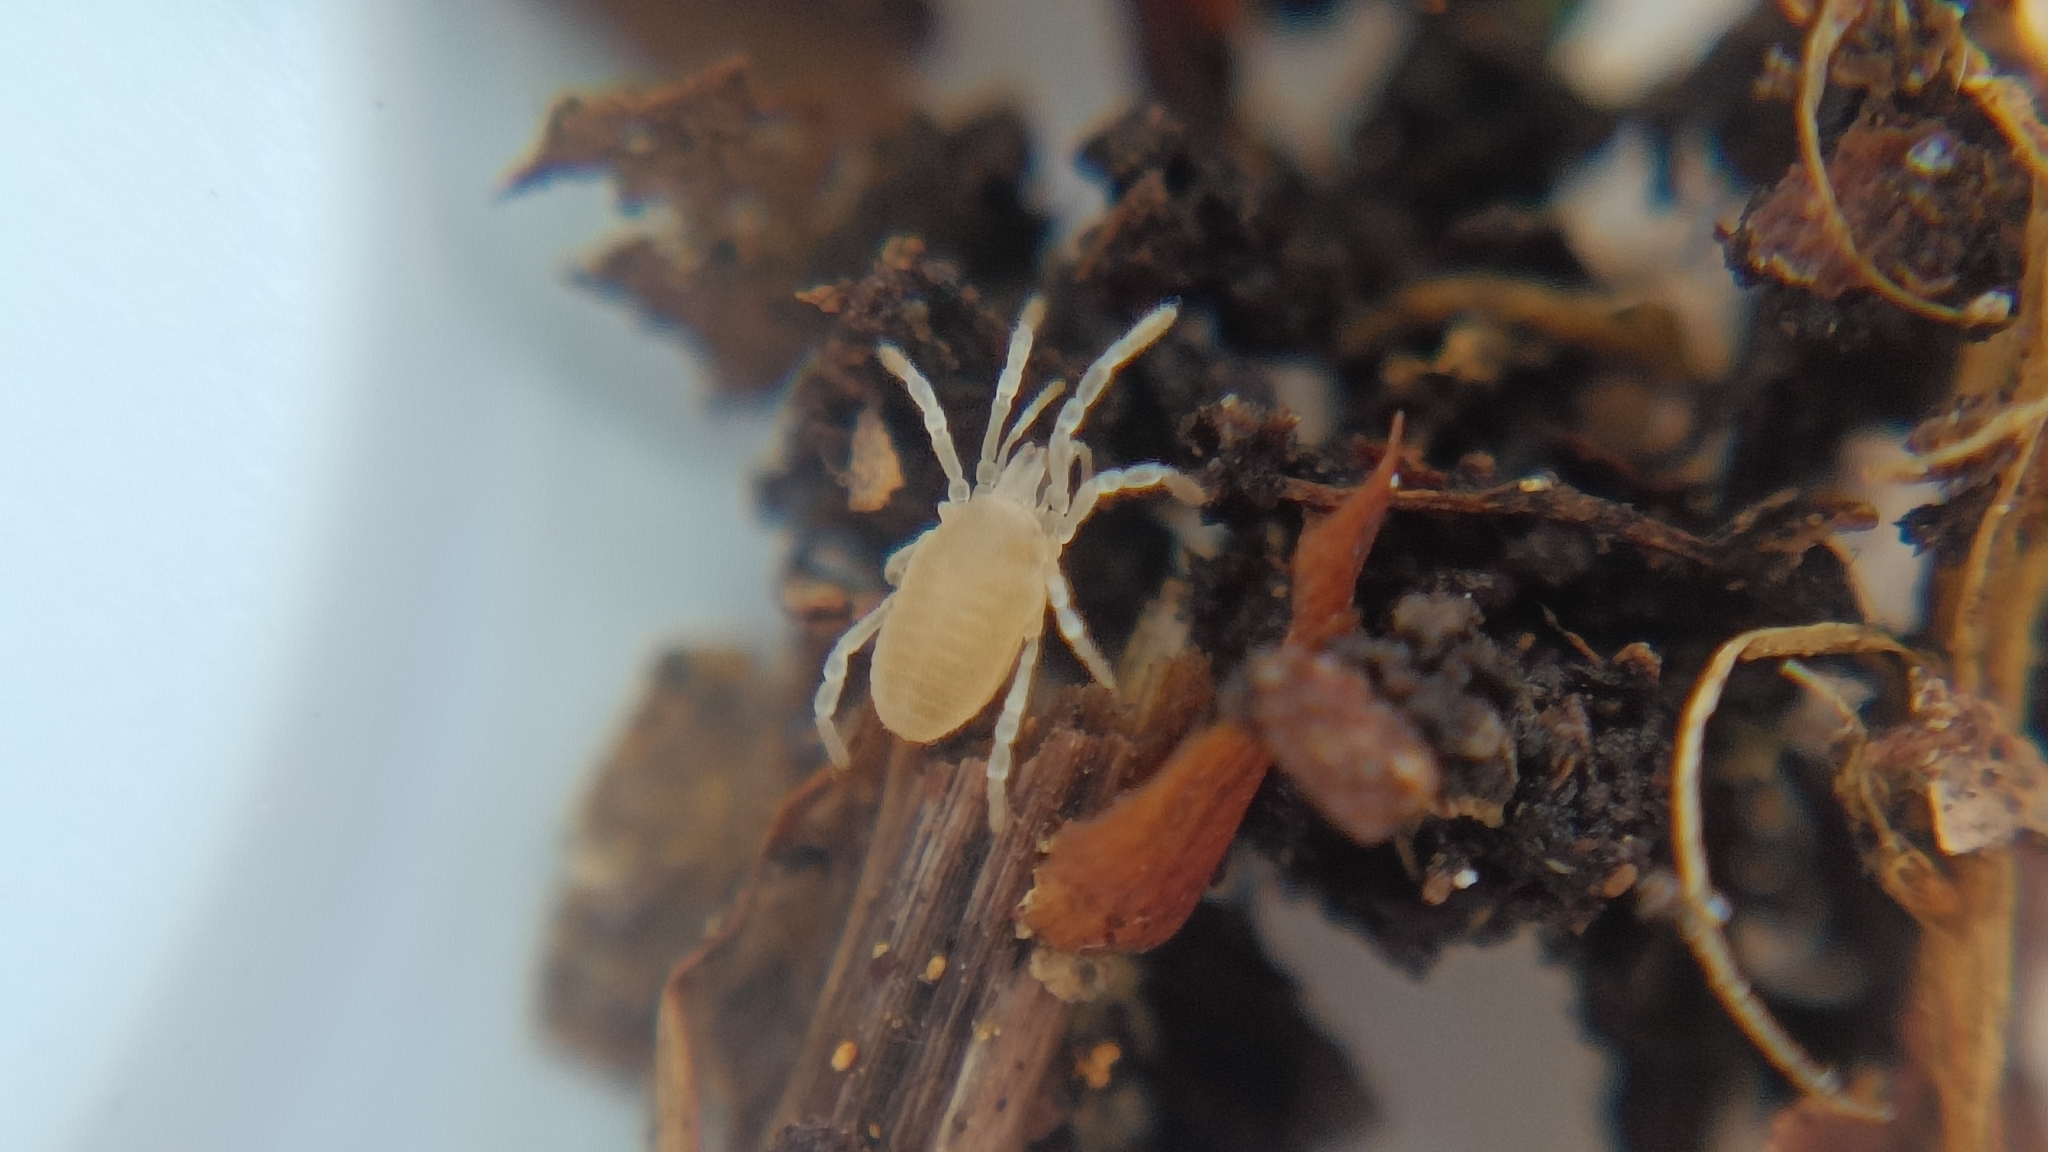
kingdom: Animalia
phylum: Arthropoda
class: Arachnida
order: Opiliones
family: Sironidae
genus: Siro
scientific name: Siro rubens
